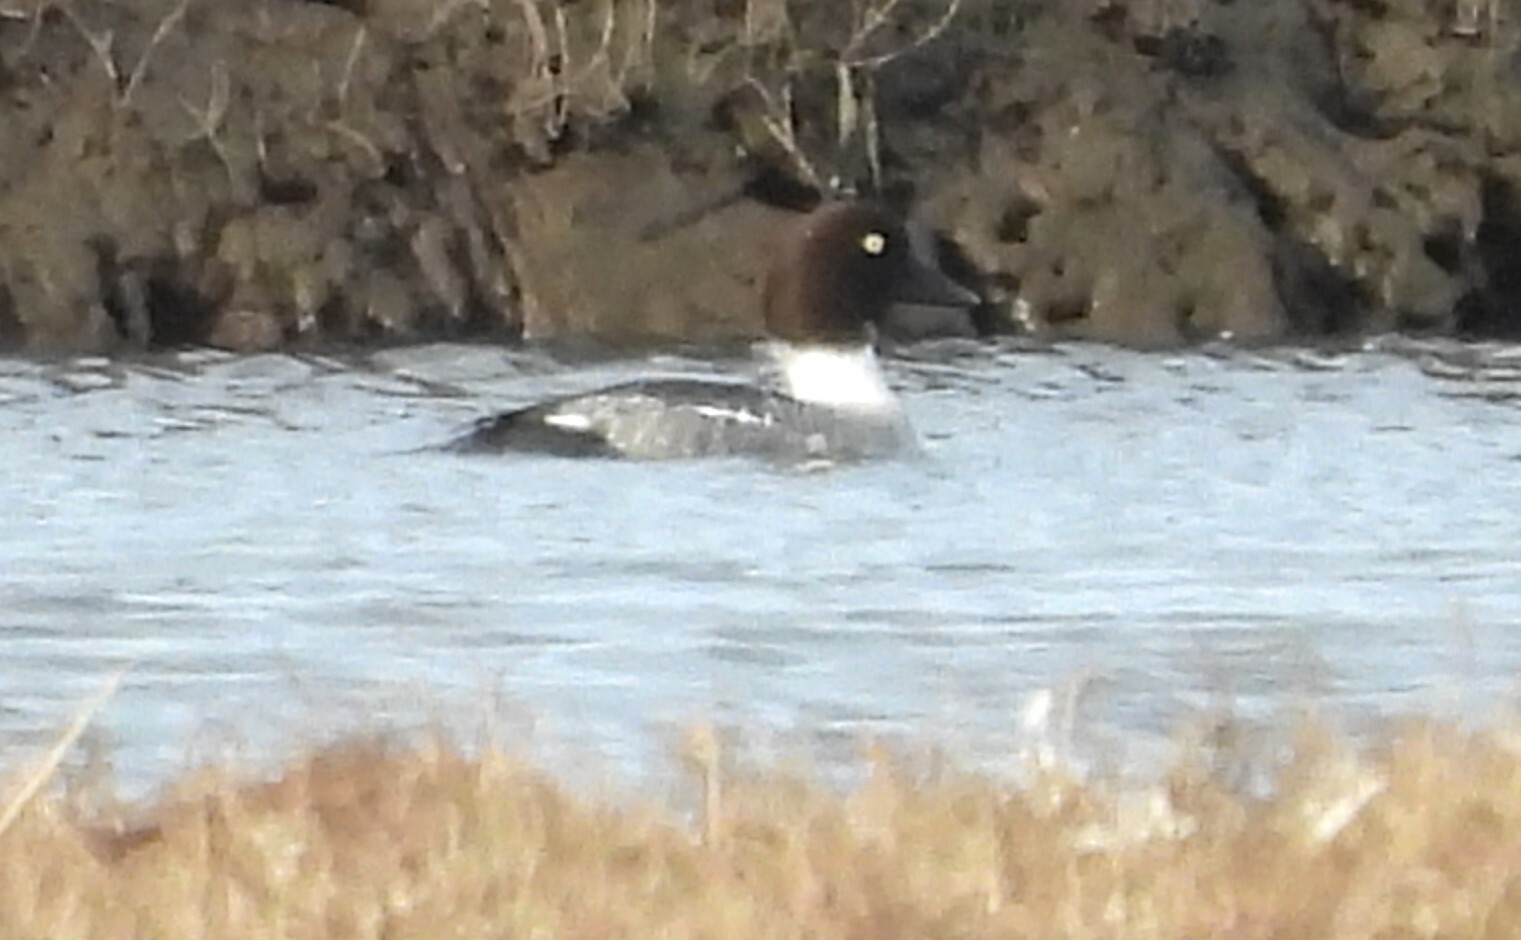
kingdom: Animalia
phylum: Chordata
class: Aves
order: Anseriformes
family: Anatidae
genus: Bucephala
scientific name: Bucephala clangula
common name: Common goldeneye
